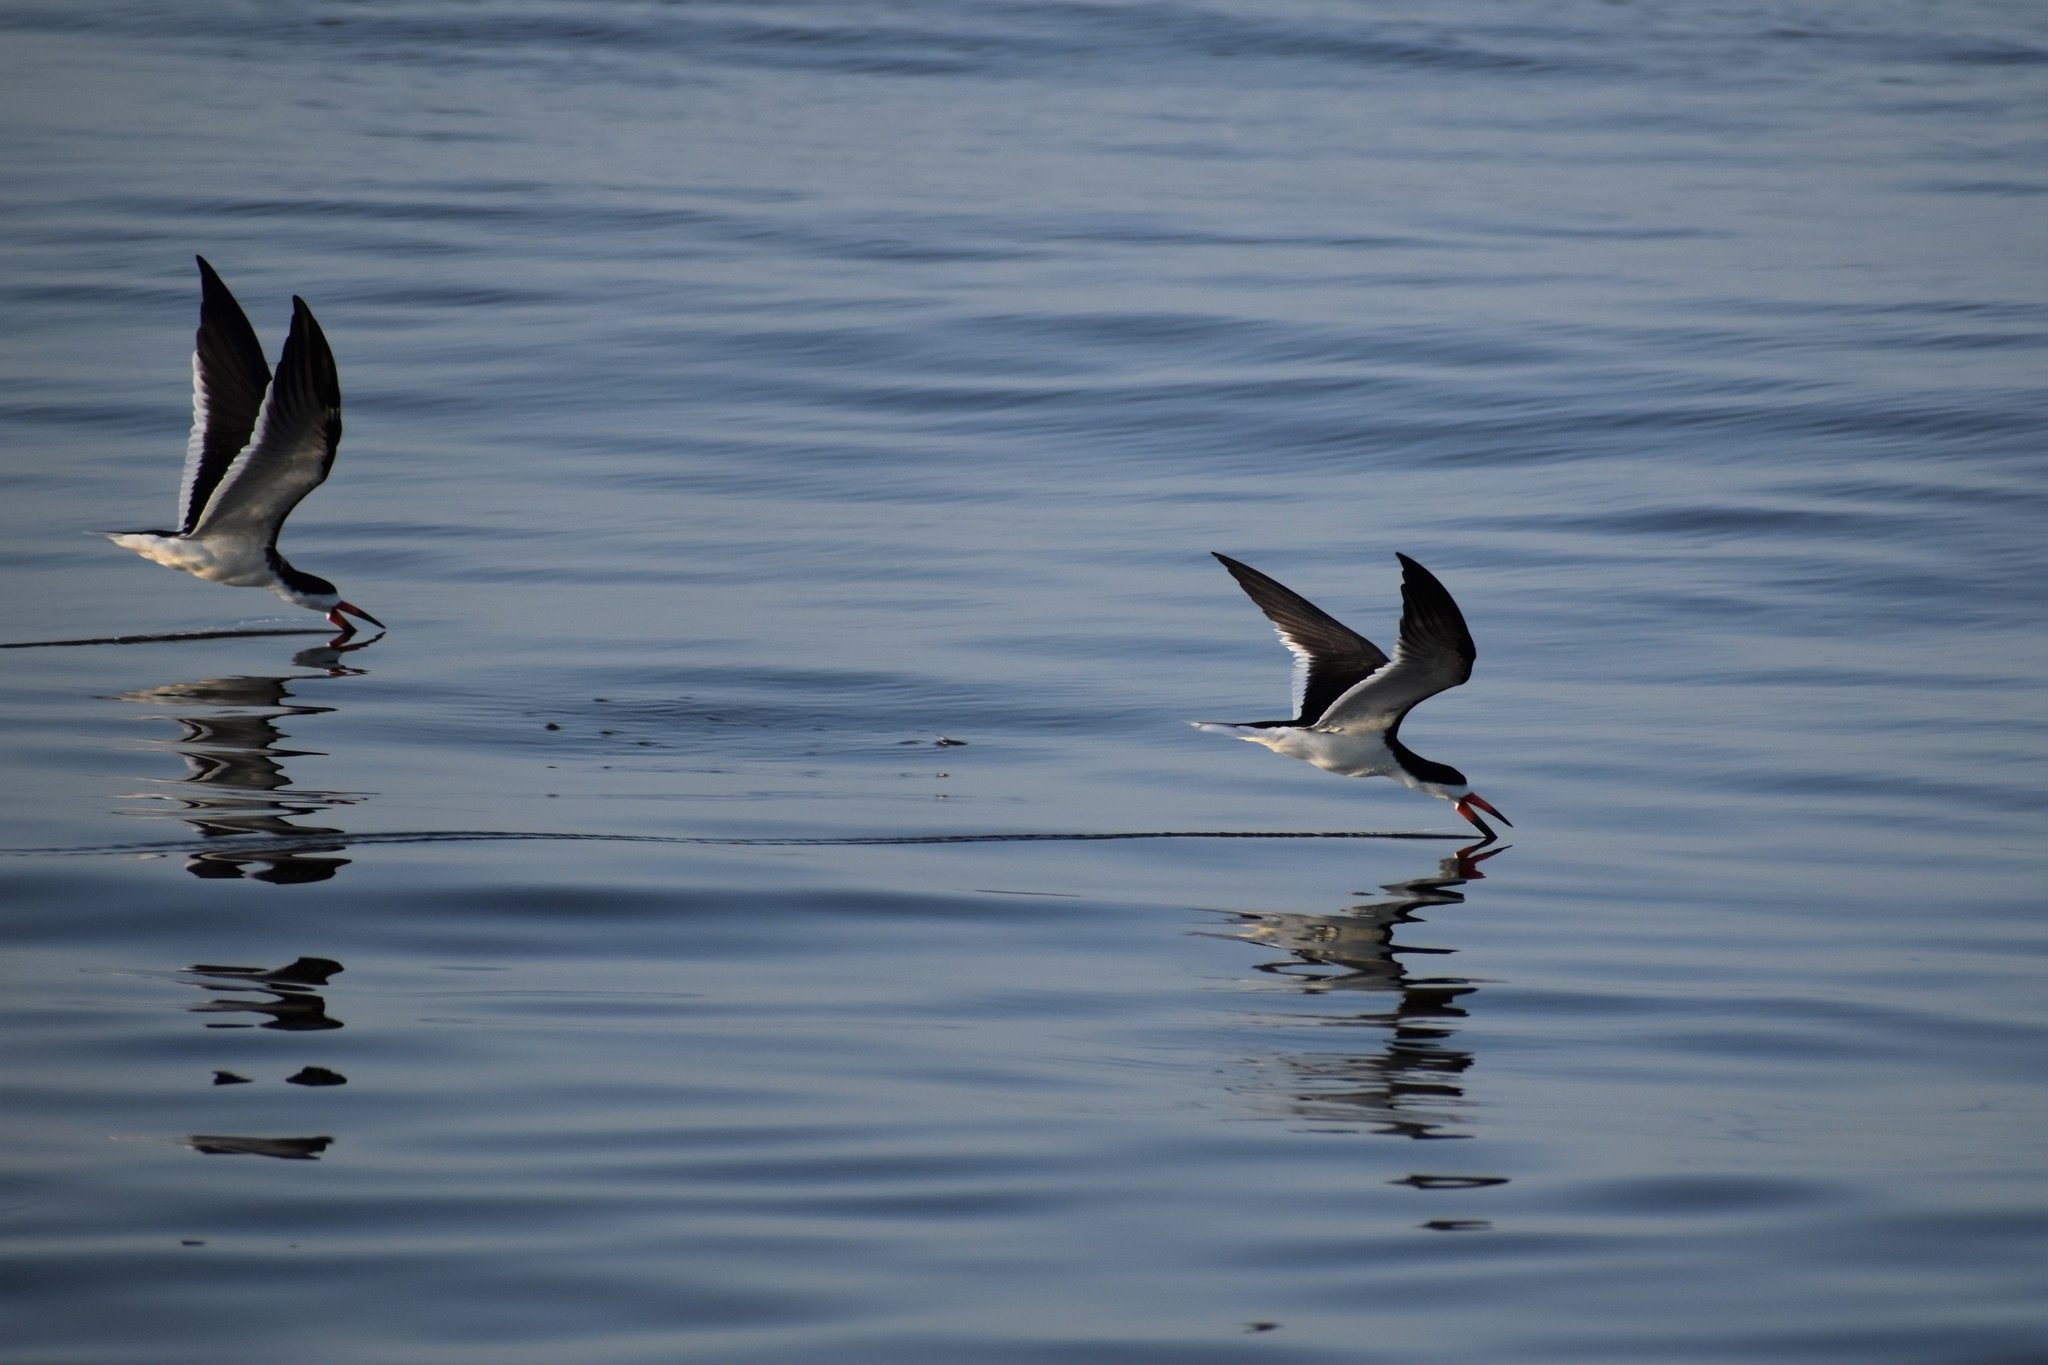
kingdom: Animalia
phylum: Chordata
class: Aves
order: Charadriiformes
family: Laridae
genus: Rynchops
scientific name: Rynchops niger
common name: Black skimmer
